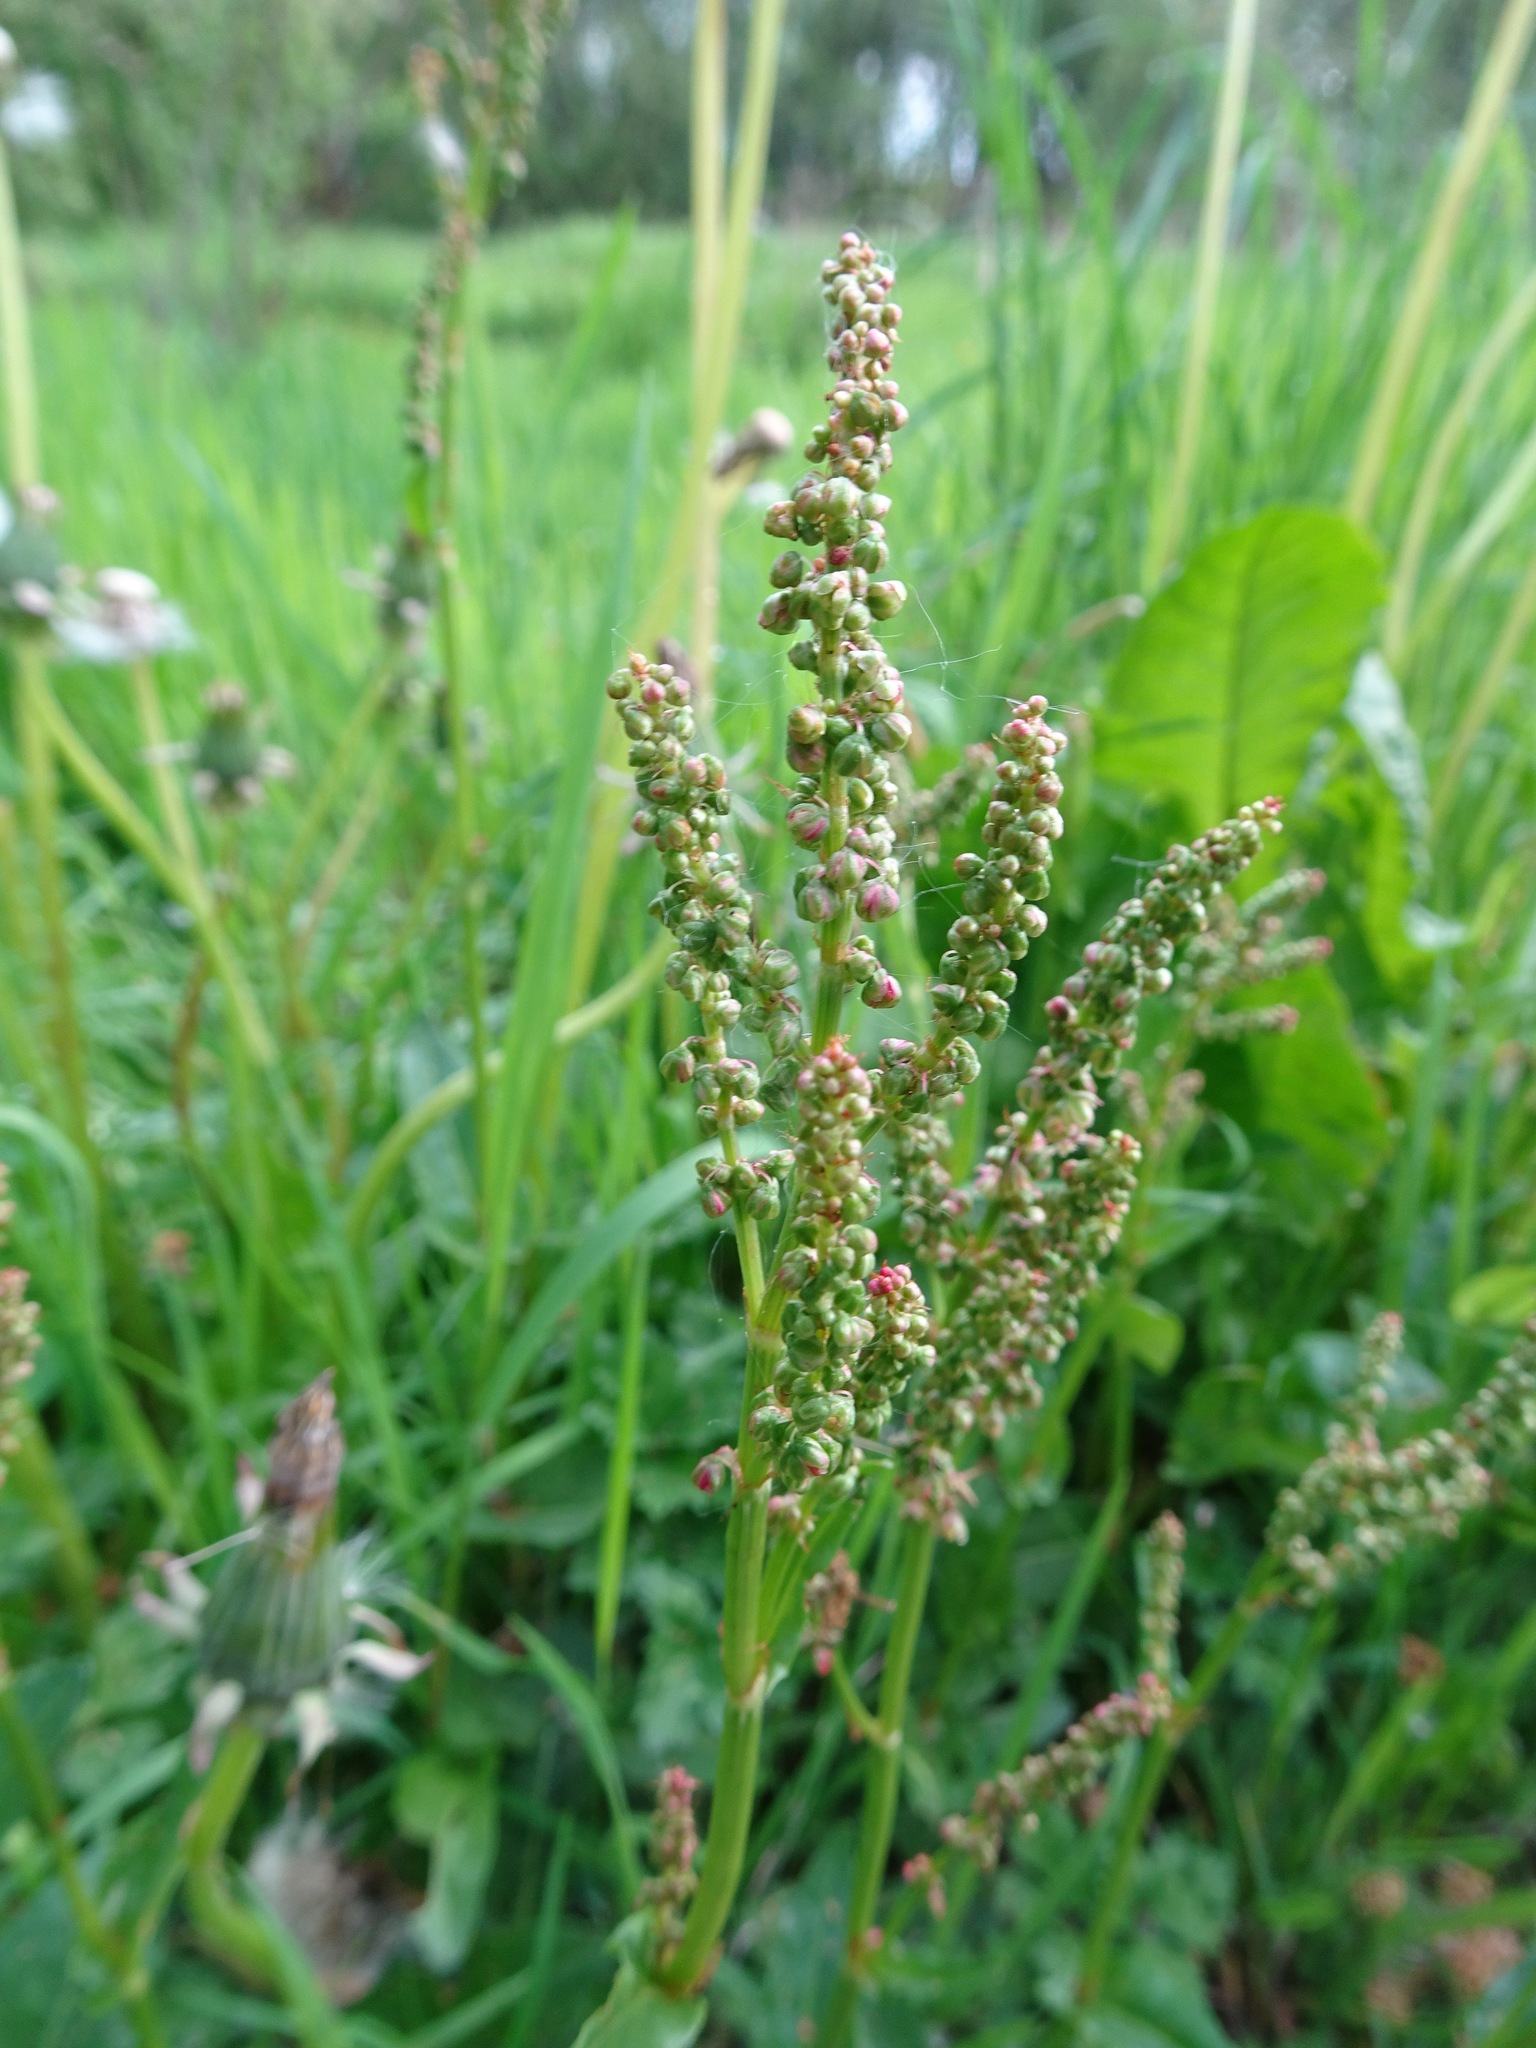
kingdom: Plantae
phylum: Tracheophyta
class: Magnoliopsida
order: Caryophyllales
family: Polygonaceae
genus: Rumex
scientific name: Rumex acetosa
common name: Garden sorrel
